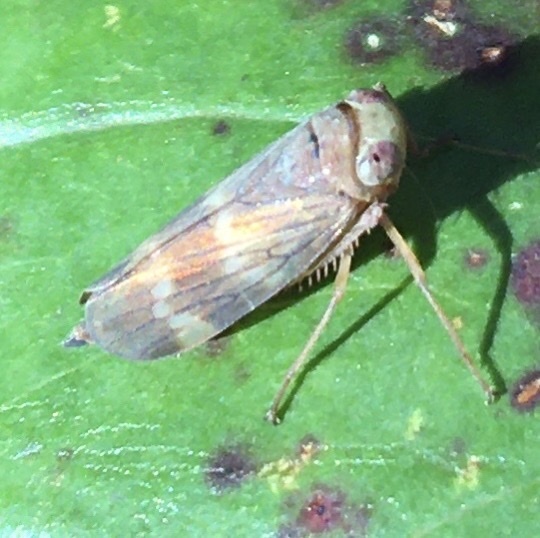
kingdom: Animalia
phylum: Arthropoda
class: Insecta
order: Hemiptera
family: Cicadellidae
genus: Jikradia
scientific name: Jikradia olitoria
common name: Coppery leafhopper
